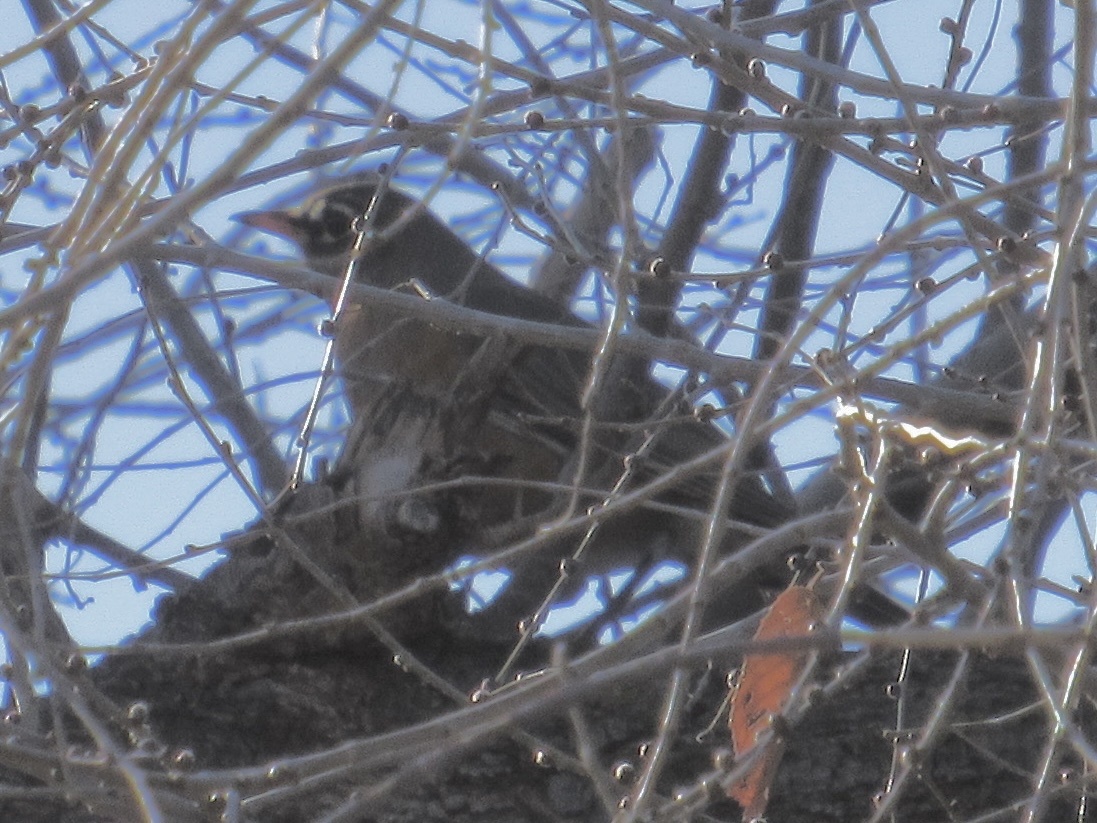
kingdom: Animalia
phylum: Chordata
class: Aves
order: Passeriformes
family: Turdidae
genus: Turdus
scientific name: Turdus migratorius
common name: American robin
